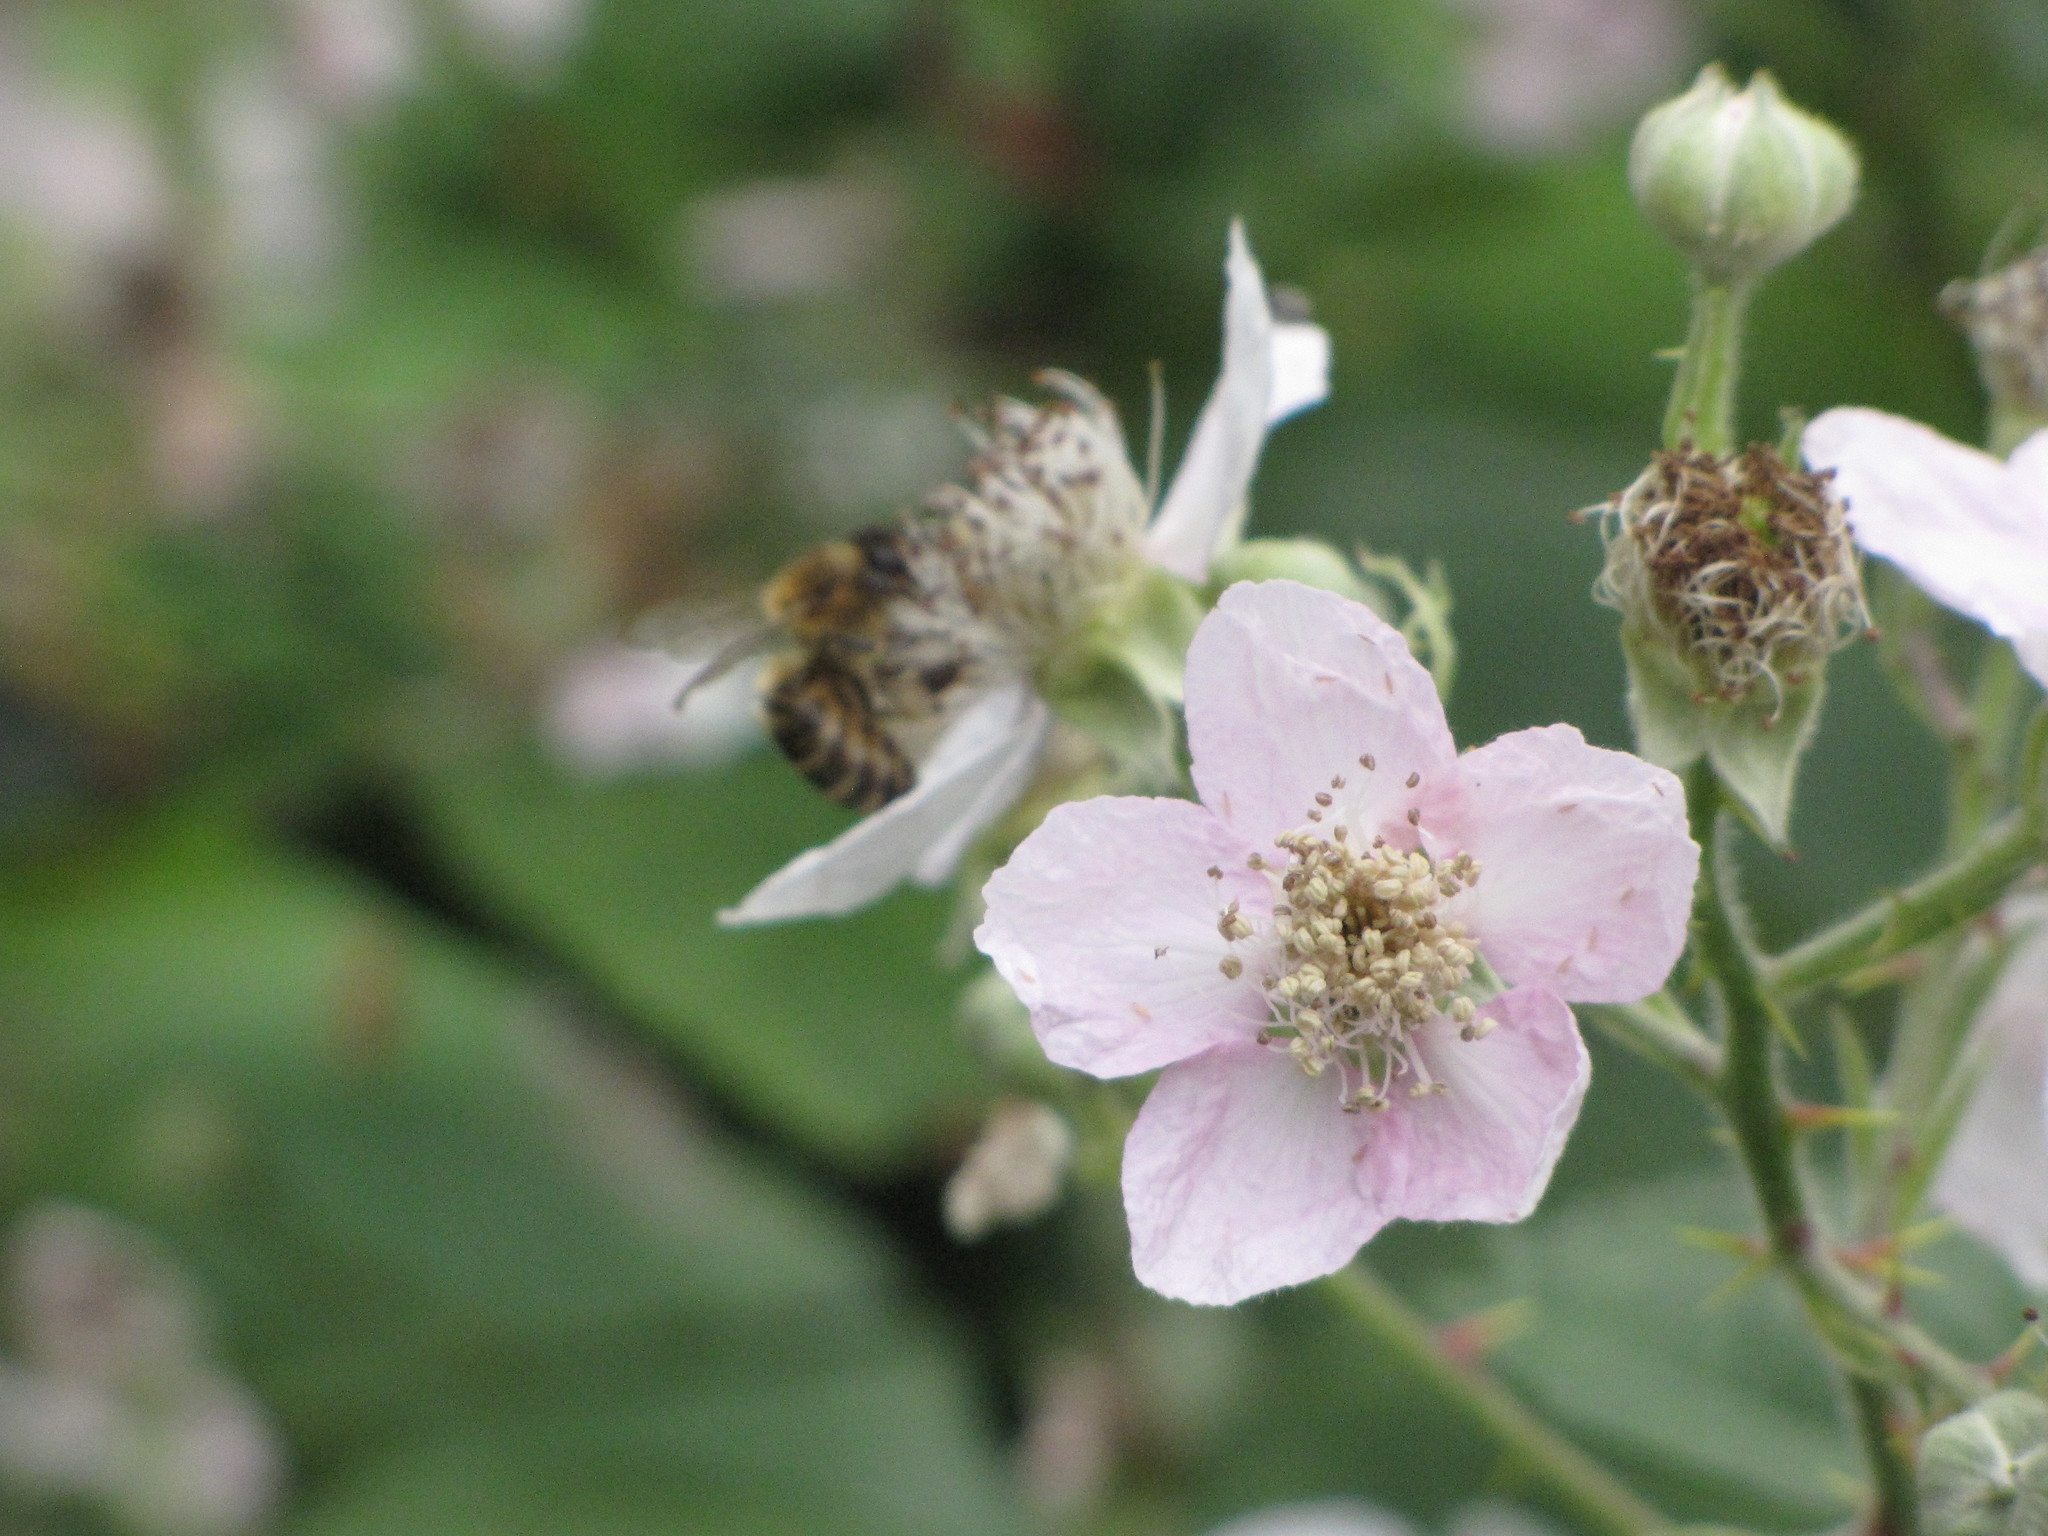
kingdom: Animalia
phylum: Arthropoda
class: Insecta
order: Hymenoptera
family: Apidae
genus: Apis
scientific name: Apis mellifera
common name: Honey bee
